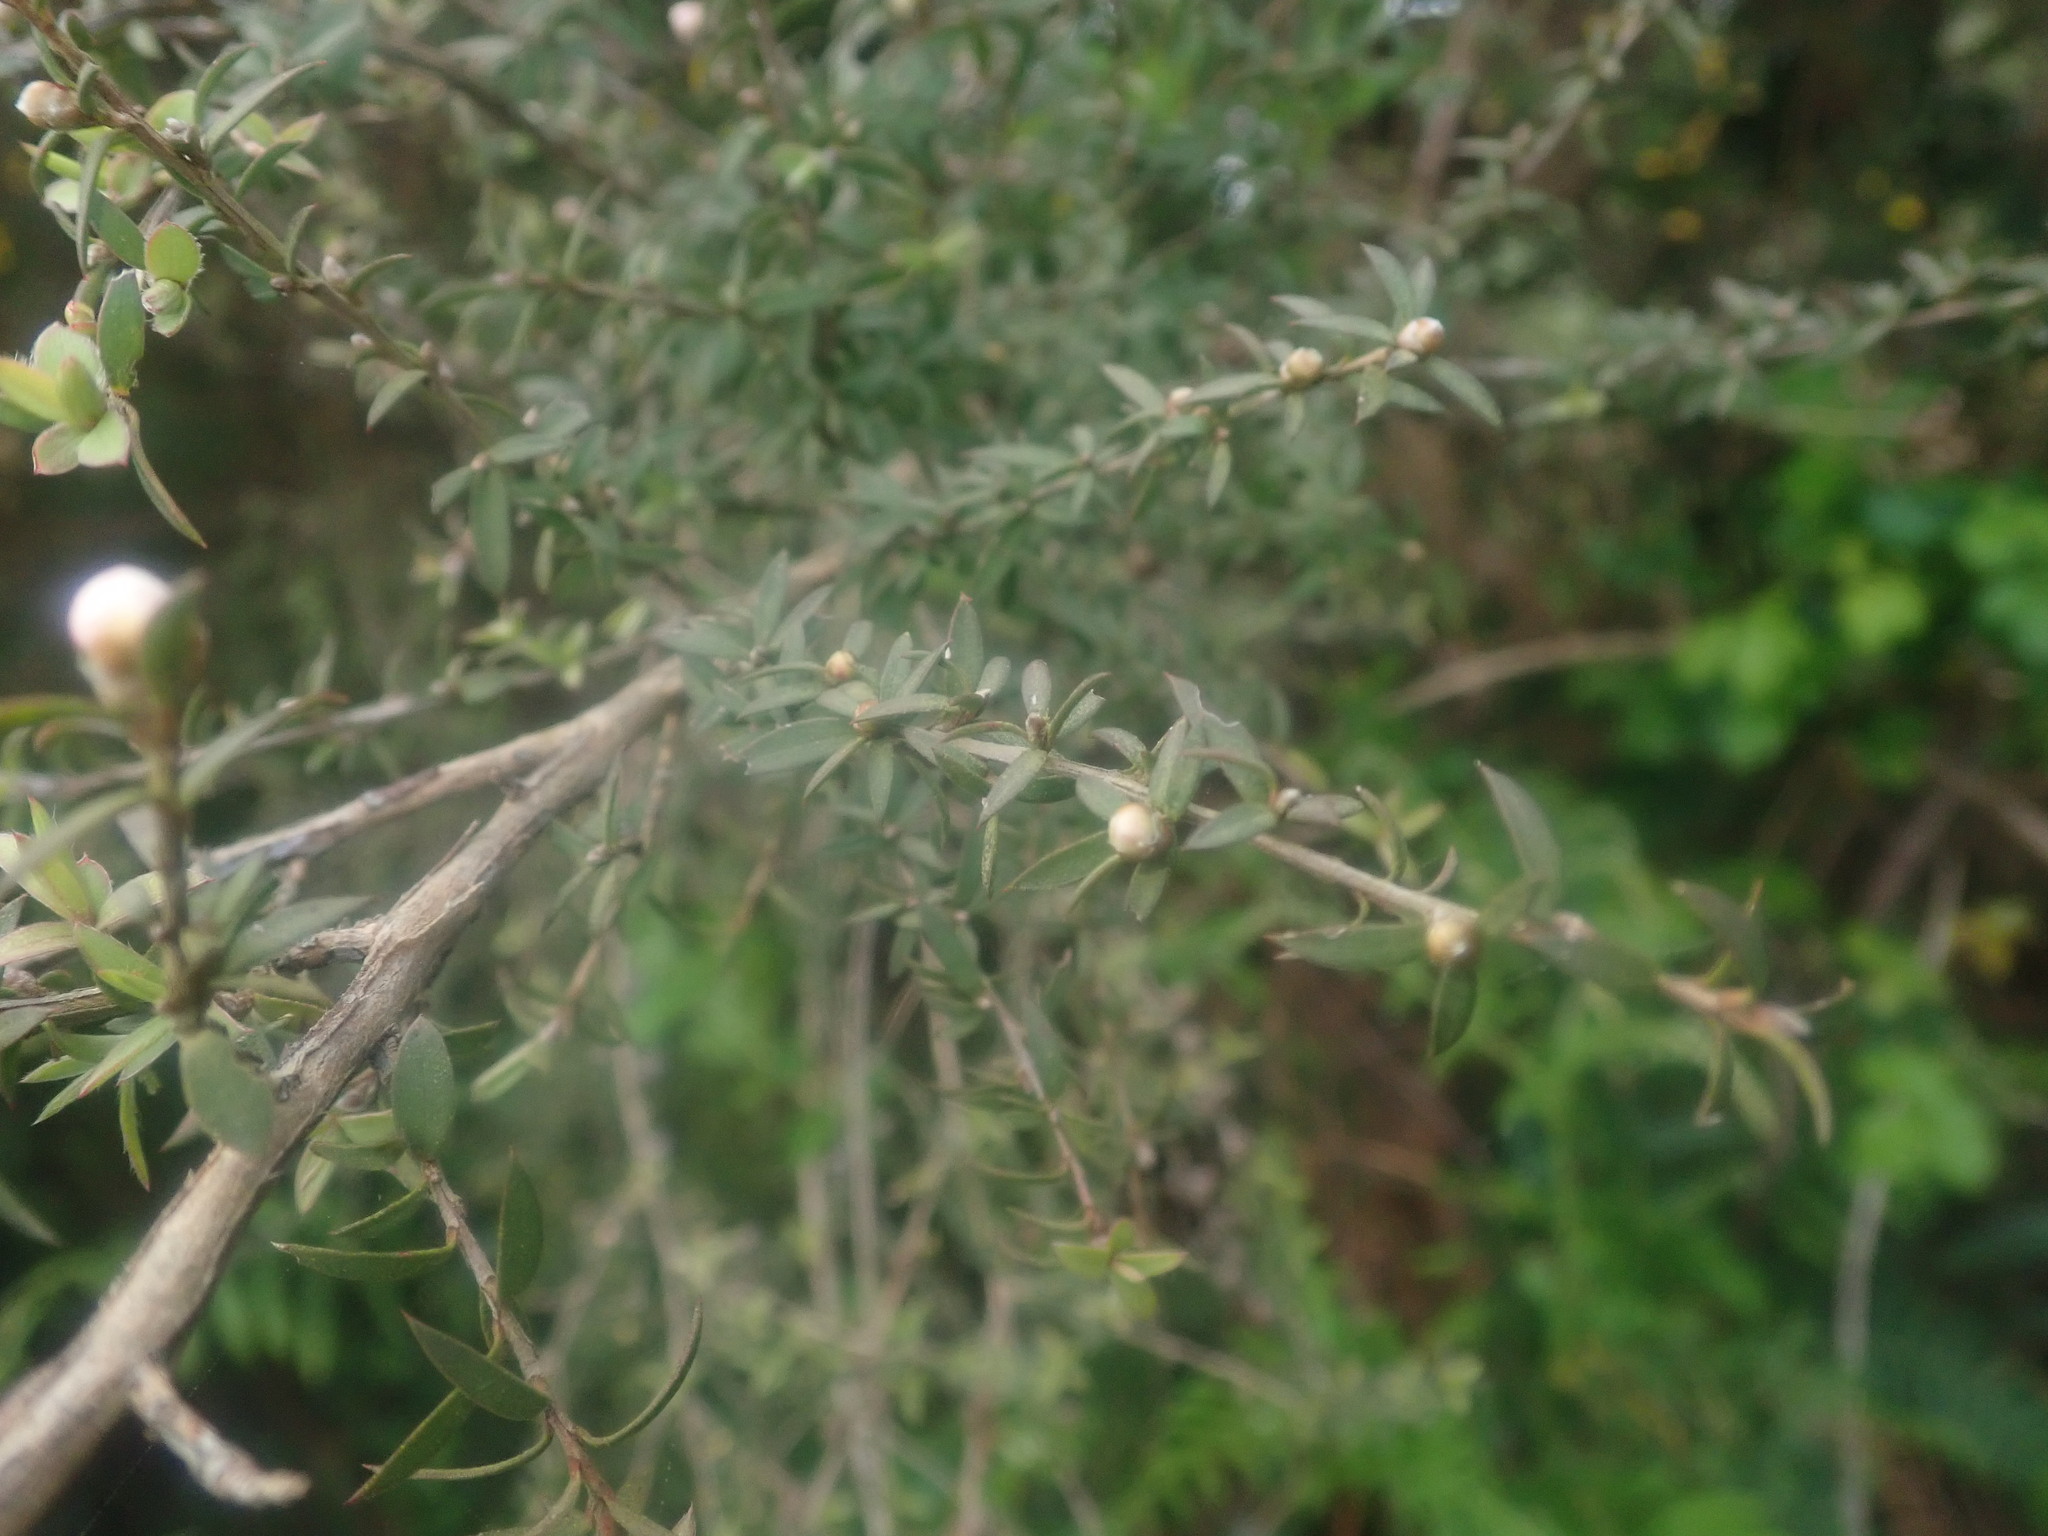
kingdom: Plantae
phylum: Tracheophyta
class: Magnoliopsida
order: Myrtales
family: Myrtaceae
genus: Leptospermum
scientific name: Leptospermum scoparium
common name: Broom tea-tree
